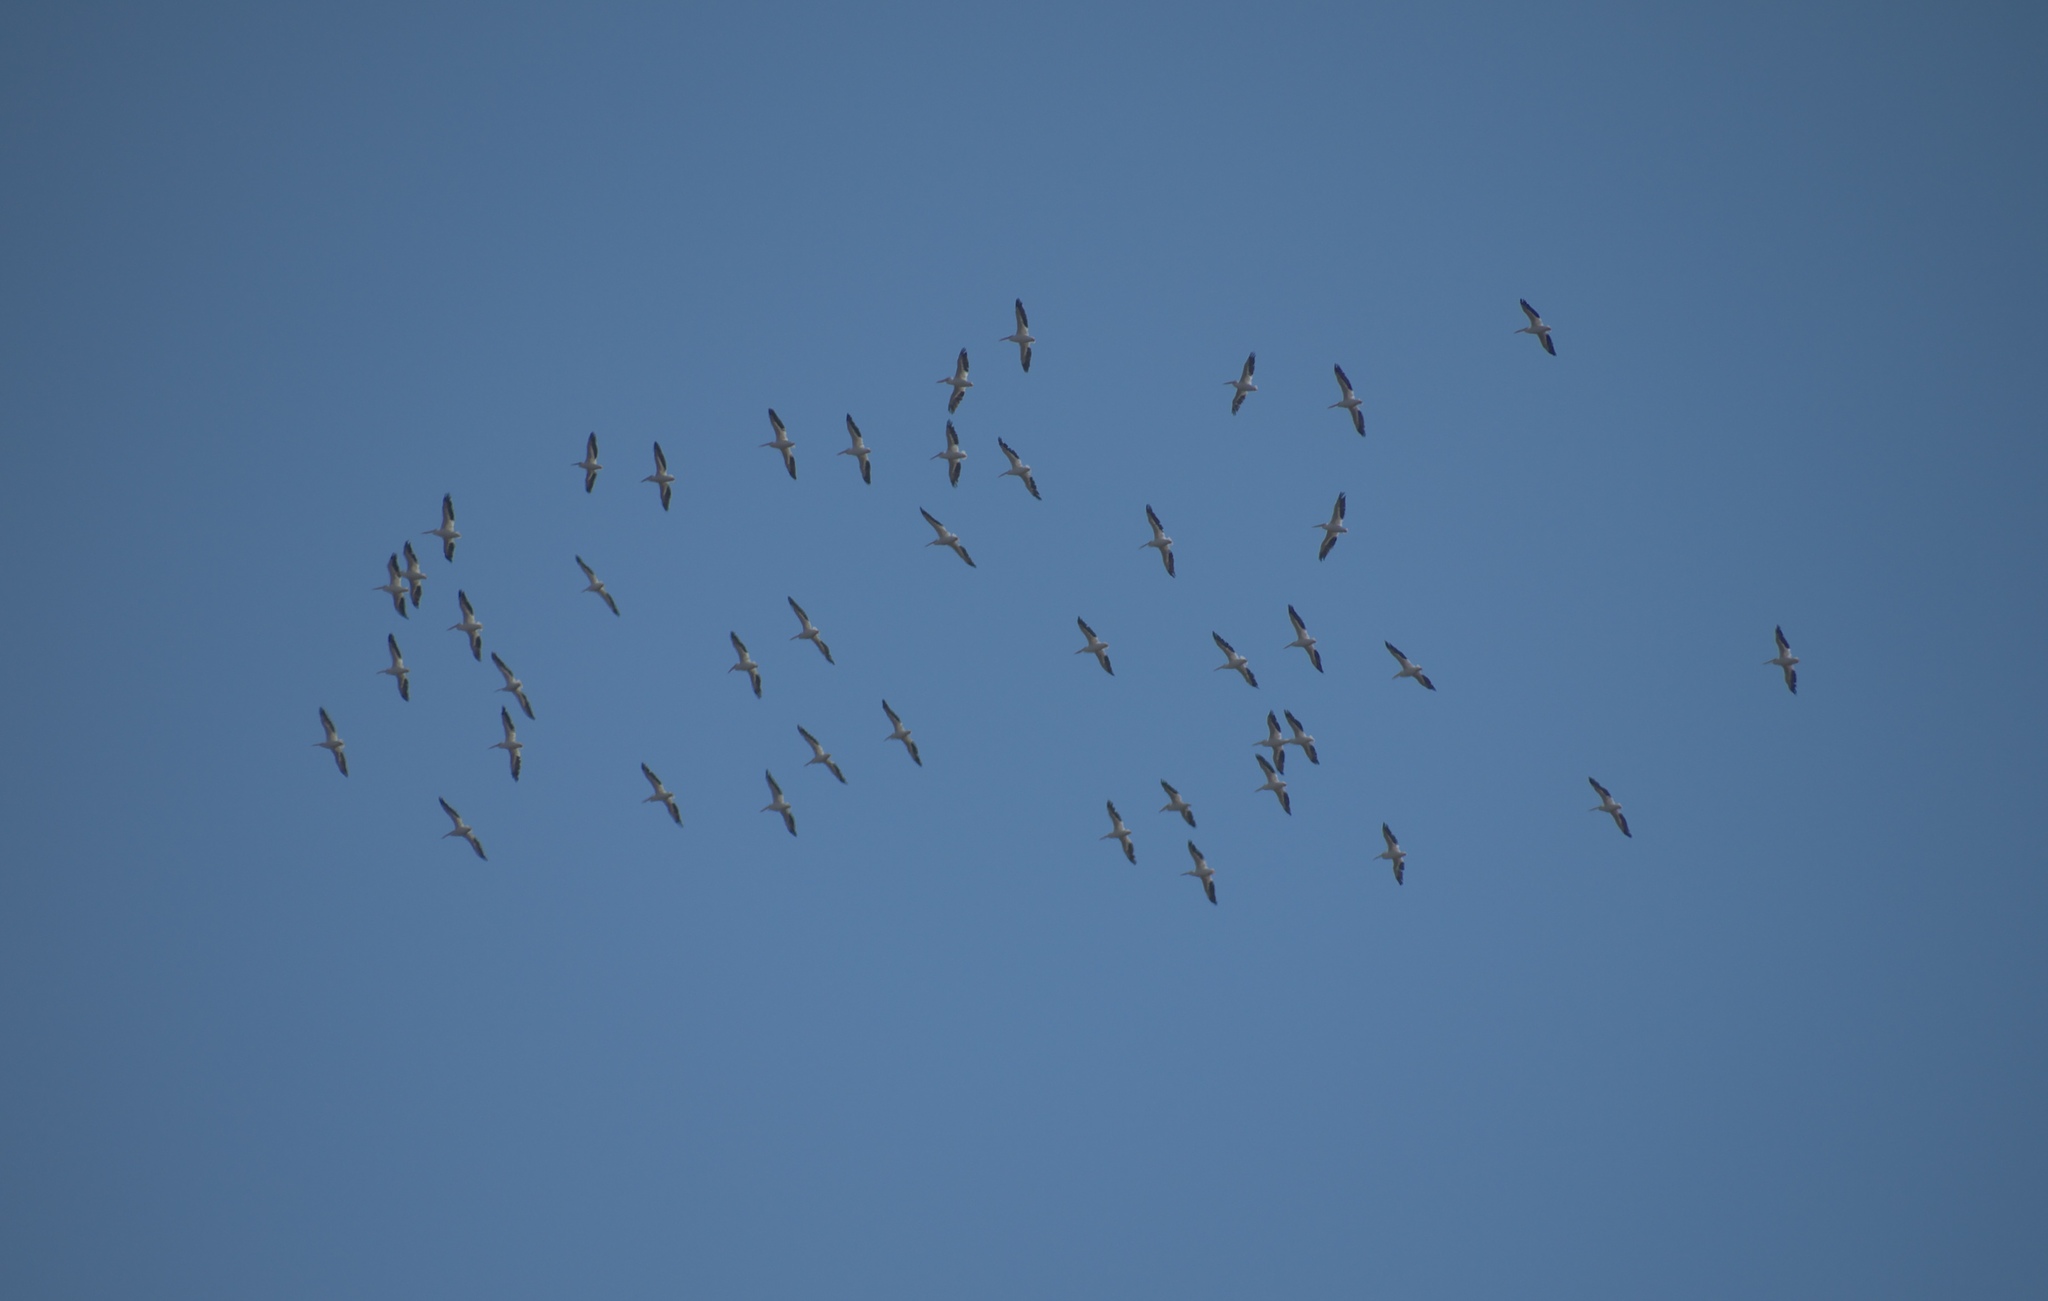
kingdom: Animalia
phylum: Chordata
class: Aves
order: Pelecaniformes
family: Pelecanidae
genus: Pelecanus
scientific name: Pelecanus erythrorhynchos
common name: American white pelican
